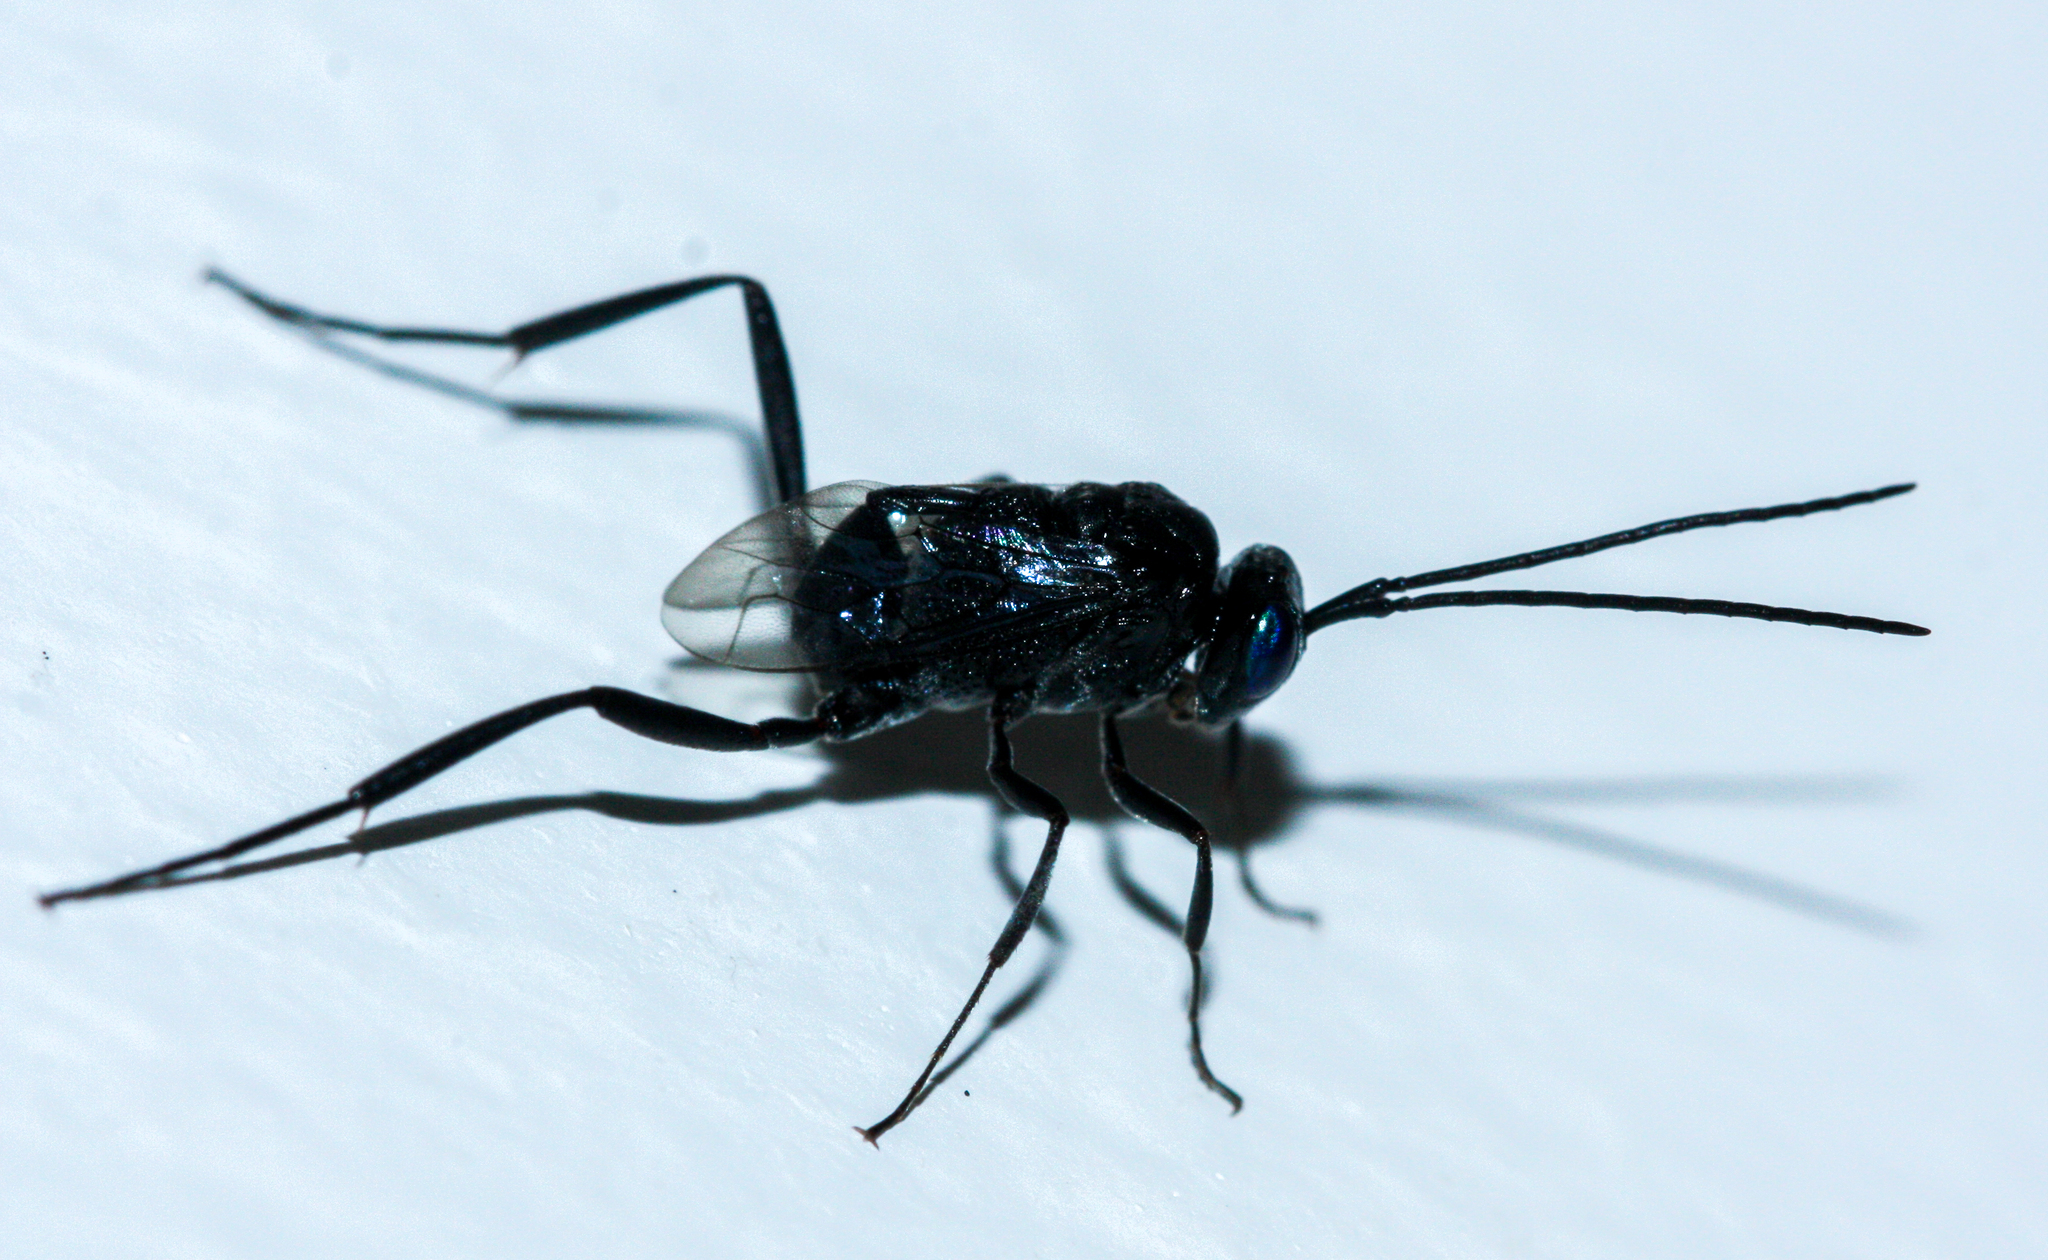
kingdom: Animalia
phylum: Arthropoda
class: Insecta
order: Hymenoptera
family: Evaniidae
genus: Evania
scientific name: Evania appendigaster
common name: Ensign wasp
